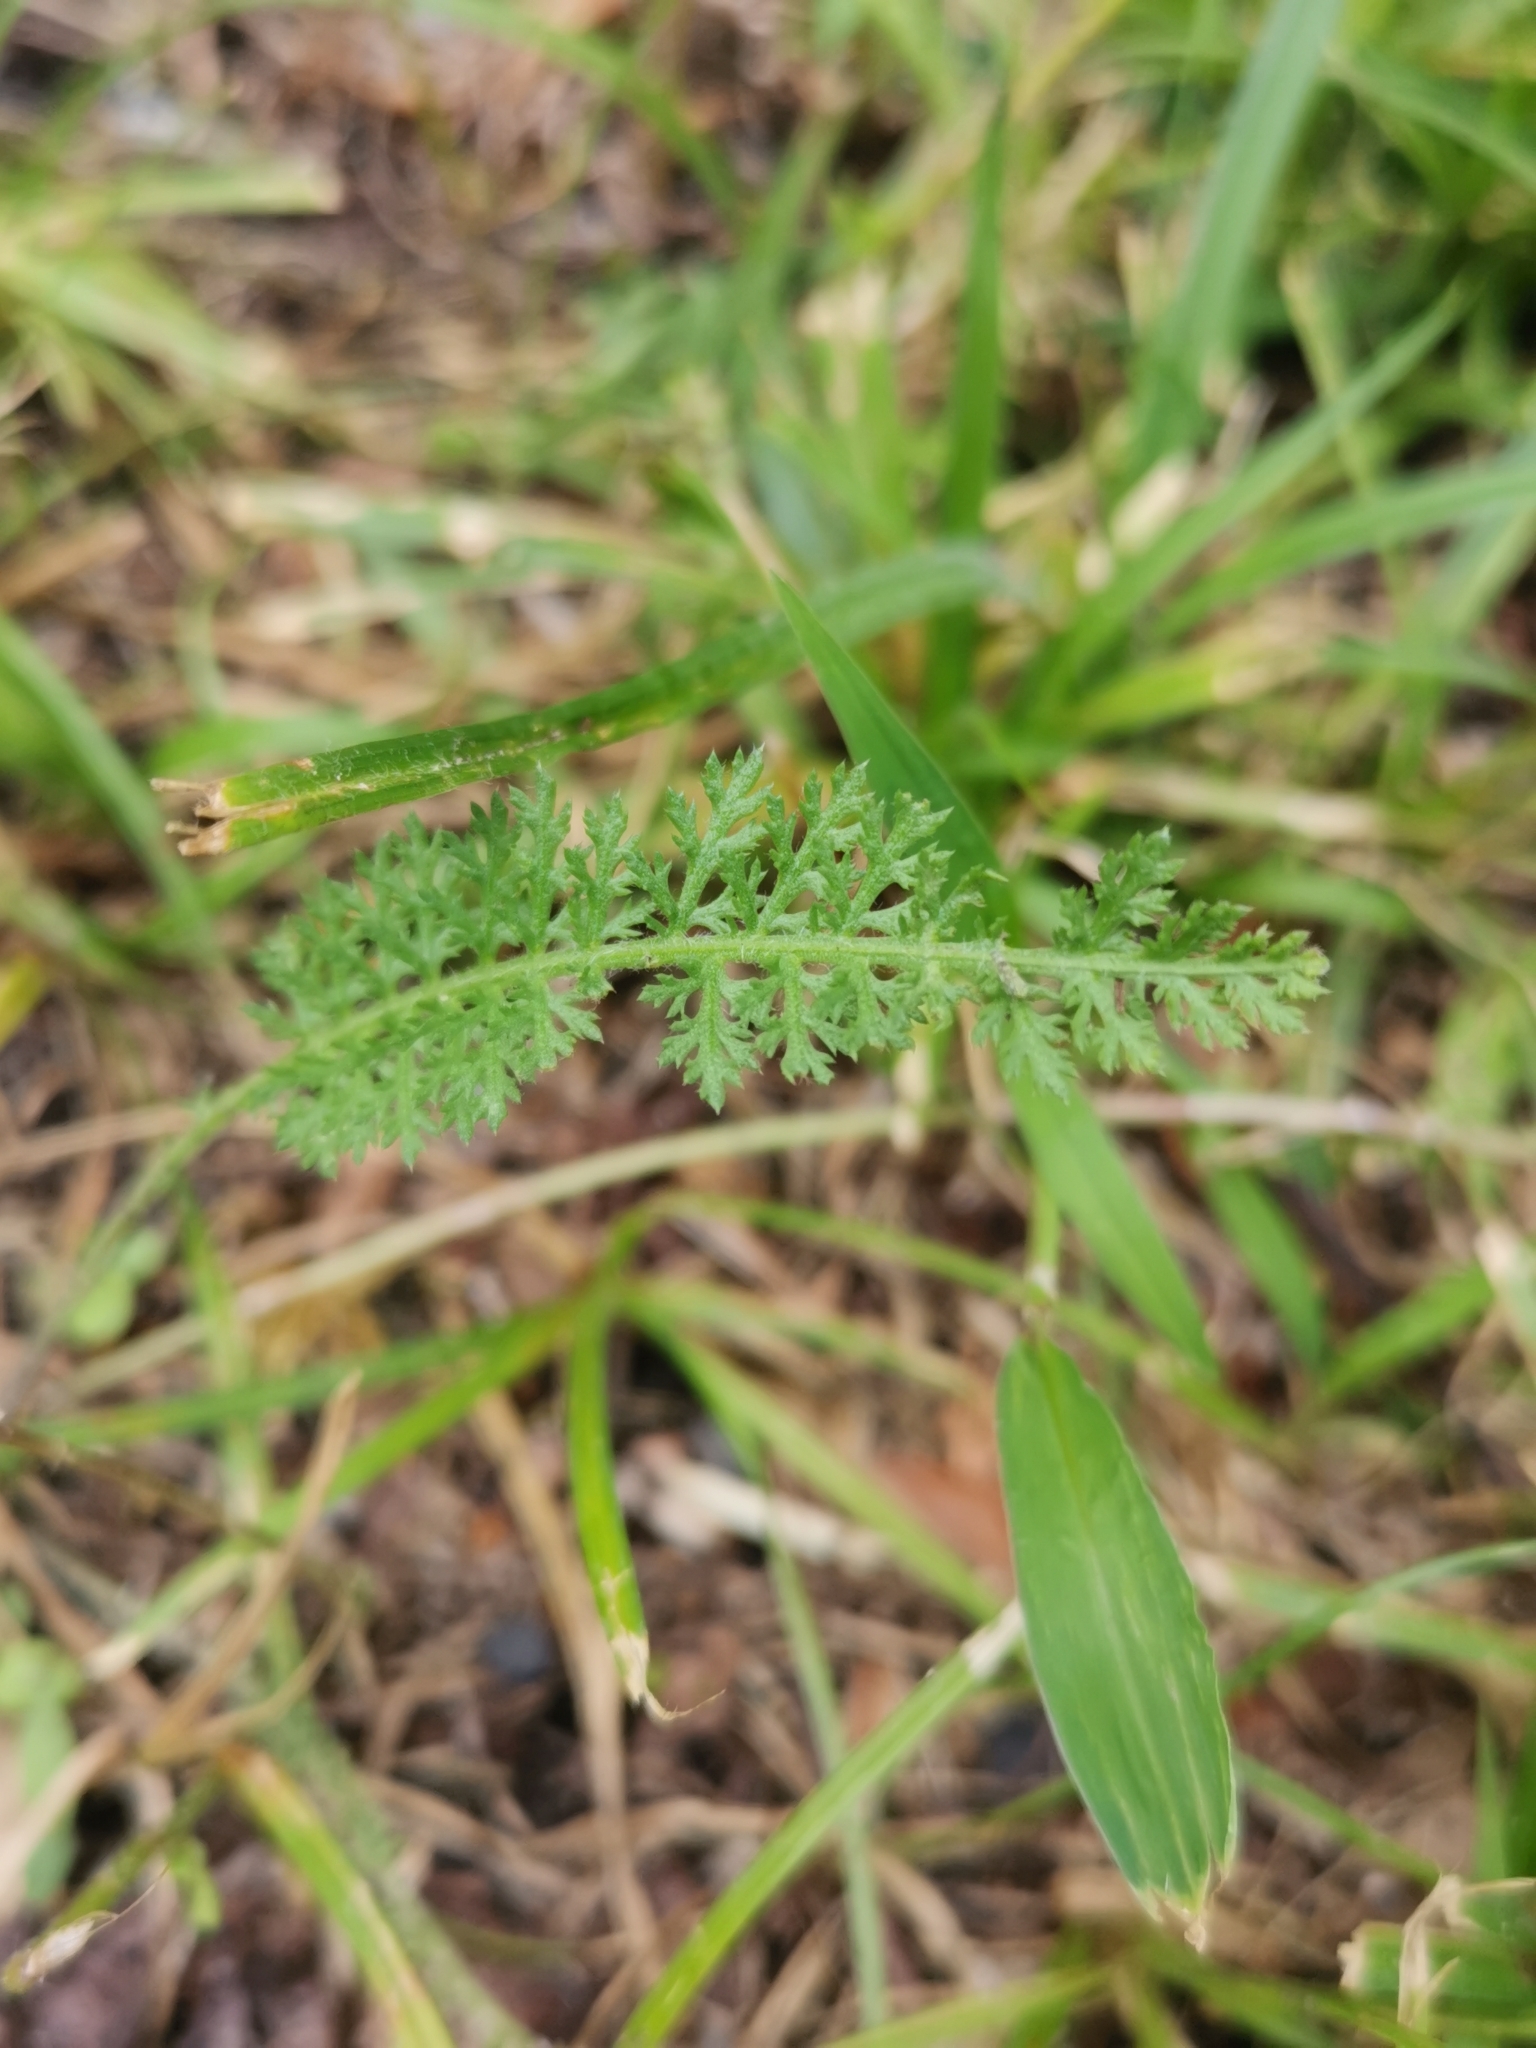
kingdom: Plantae
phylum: Tracheophyta
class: Magnoliopsida
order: Asterales
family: Asteraceae
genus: Achillea
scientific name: Achillea millefolium
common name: Yarrow
